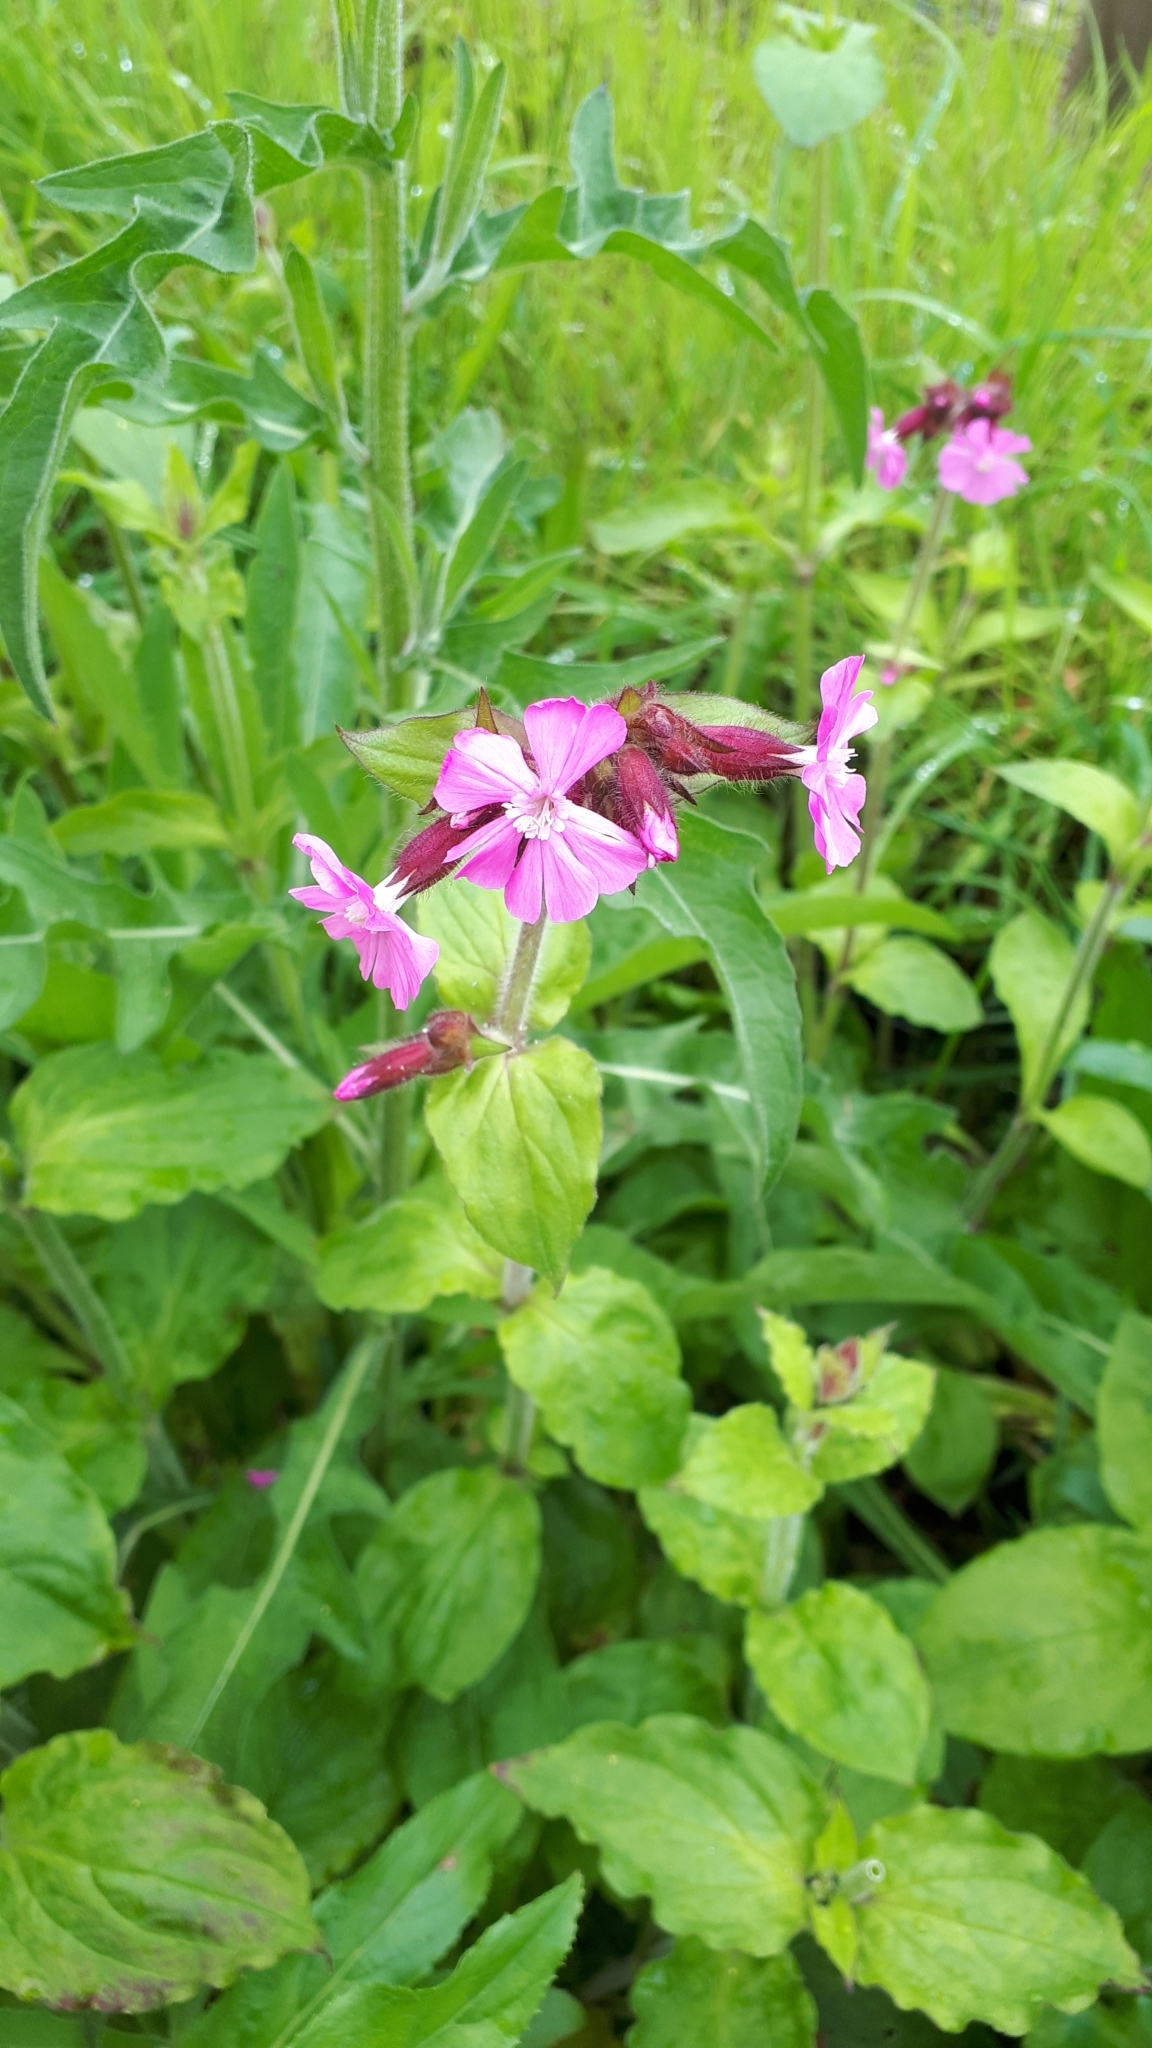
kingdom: Plantae
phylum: Tracheophyta
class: Magnoliopsida
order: Caryophyllales
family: Caryophyllaceae
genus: Silene
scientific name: Silene dioica
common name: Red campion
